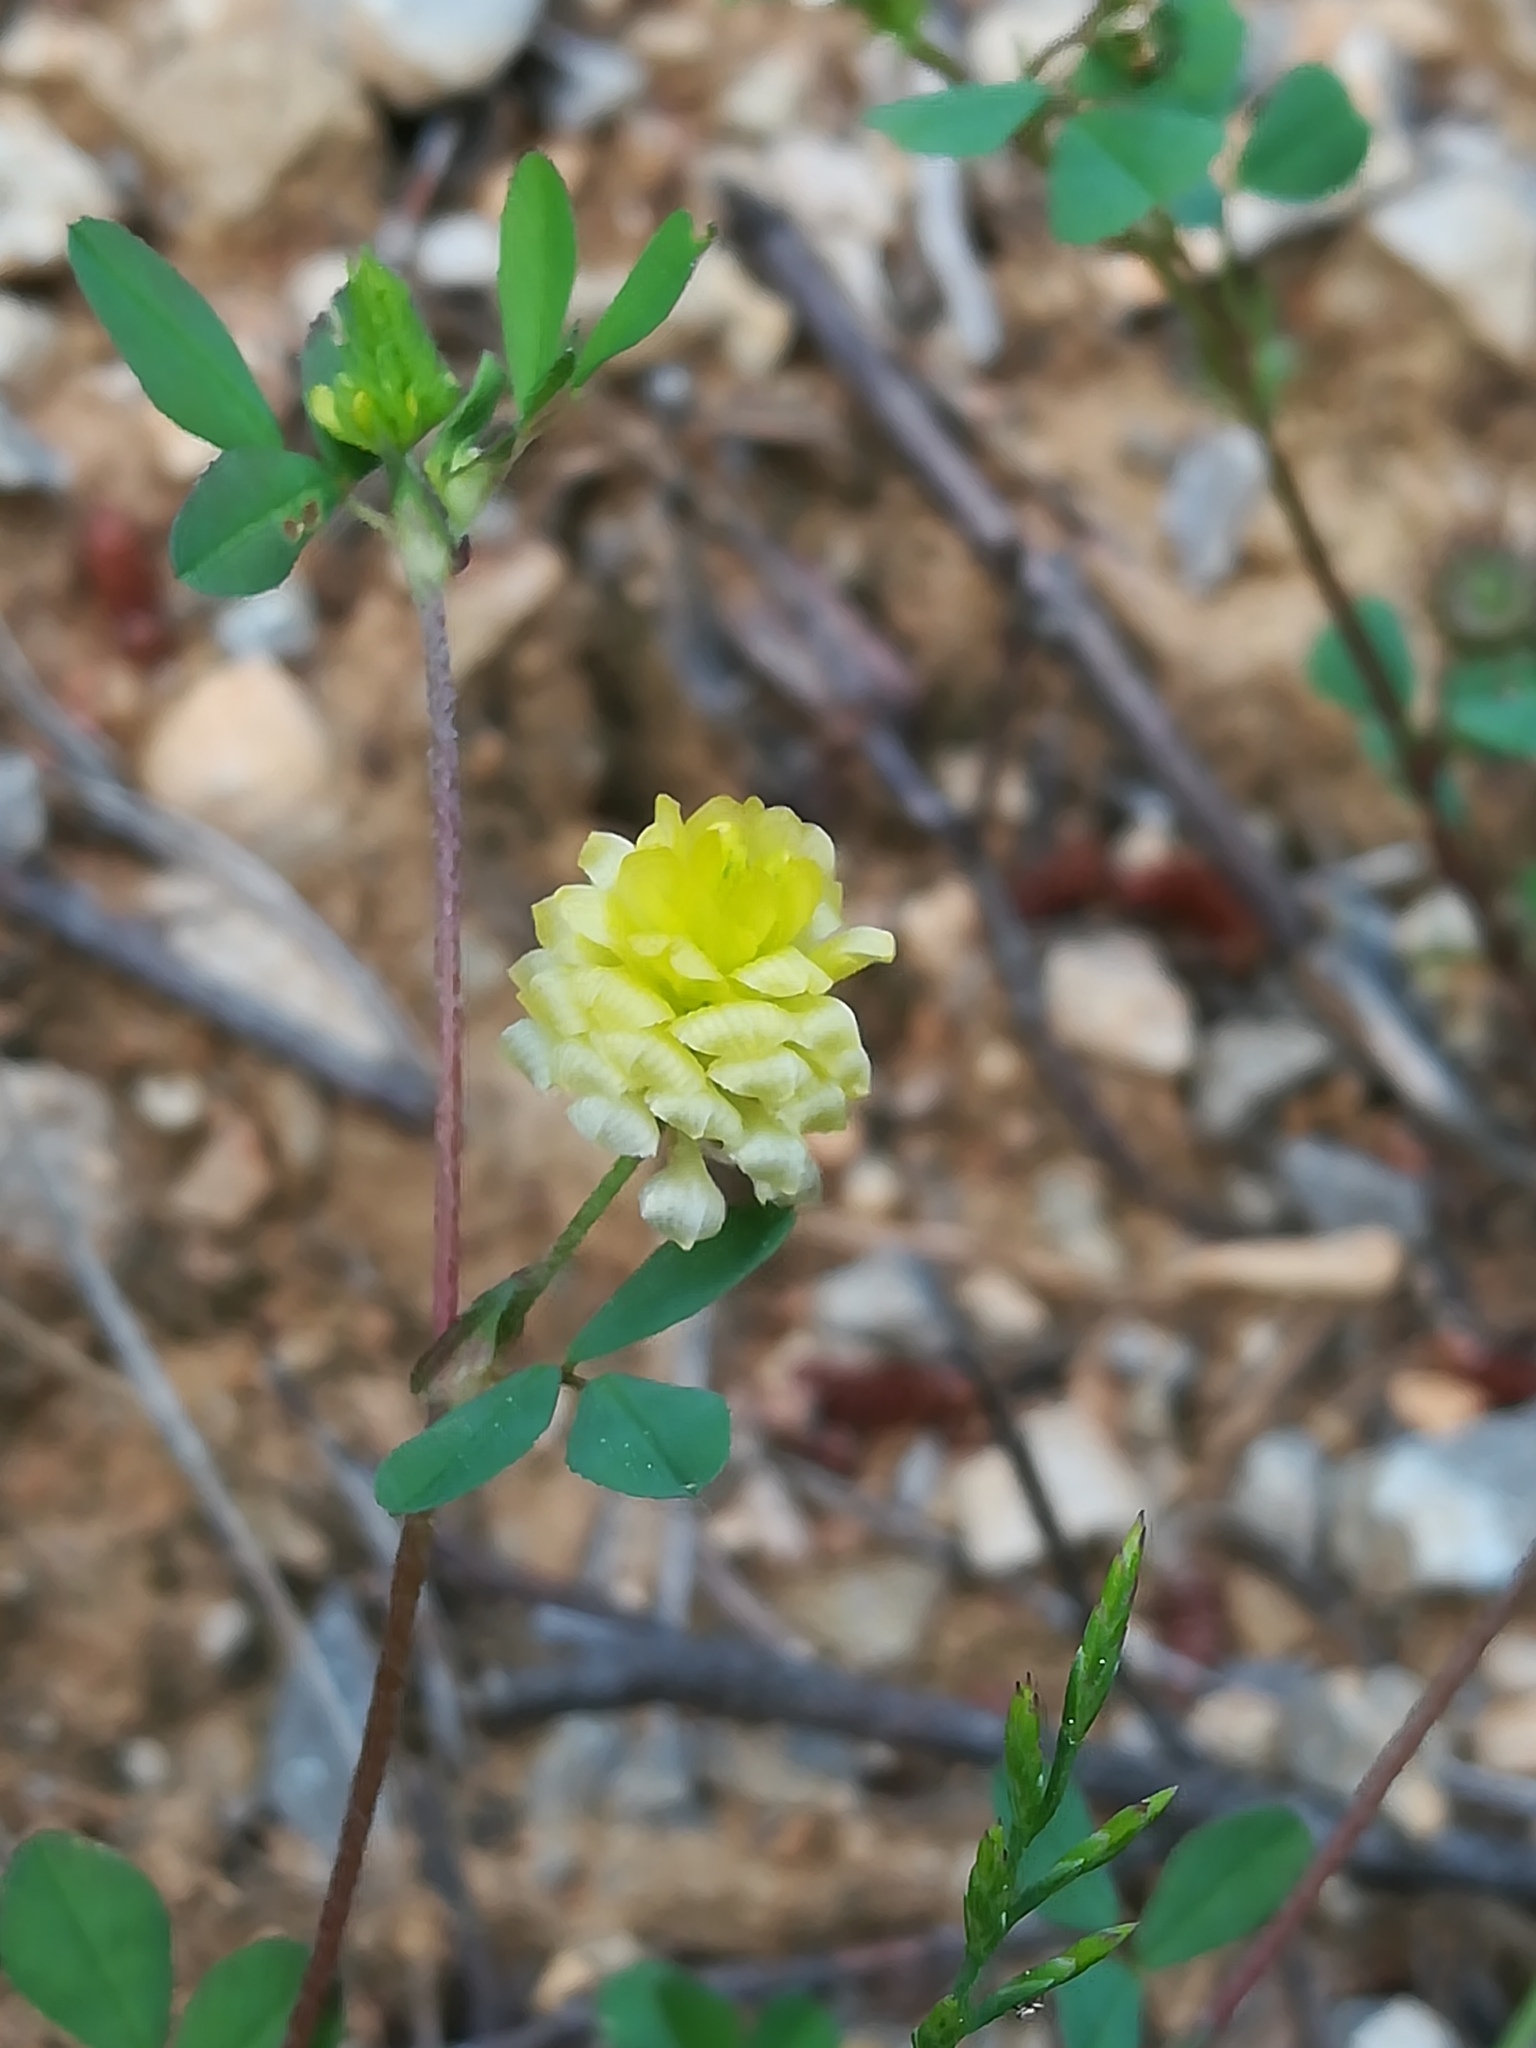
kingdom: Plantae
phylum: Tracheophyta
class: Magnoliopsida
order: Fabales
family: Fabaceae
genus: Trifolium
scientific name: Trifolium campestre
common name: Field clover
